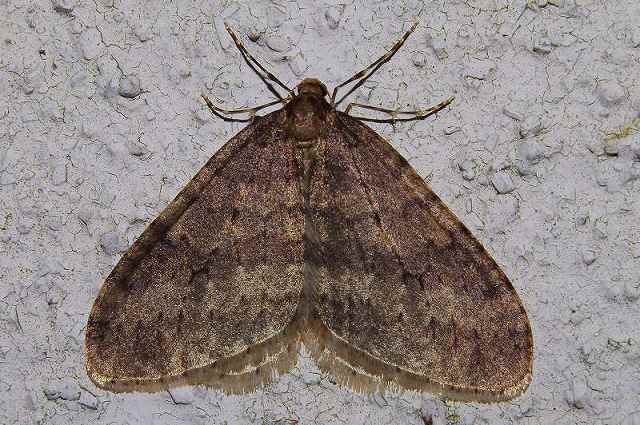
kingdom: Animalia
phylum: Arthropoda
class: Insecta
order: Lepidoptera
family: Geometridae
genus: Operophtera
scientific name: Operophtera brunnea
